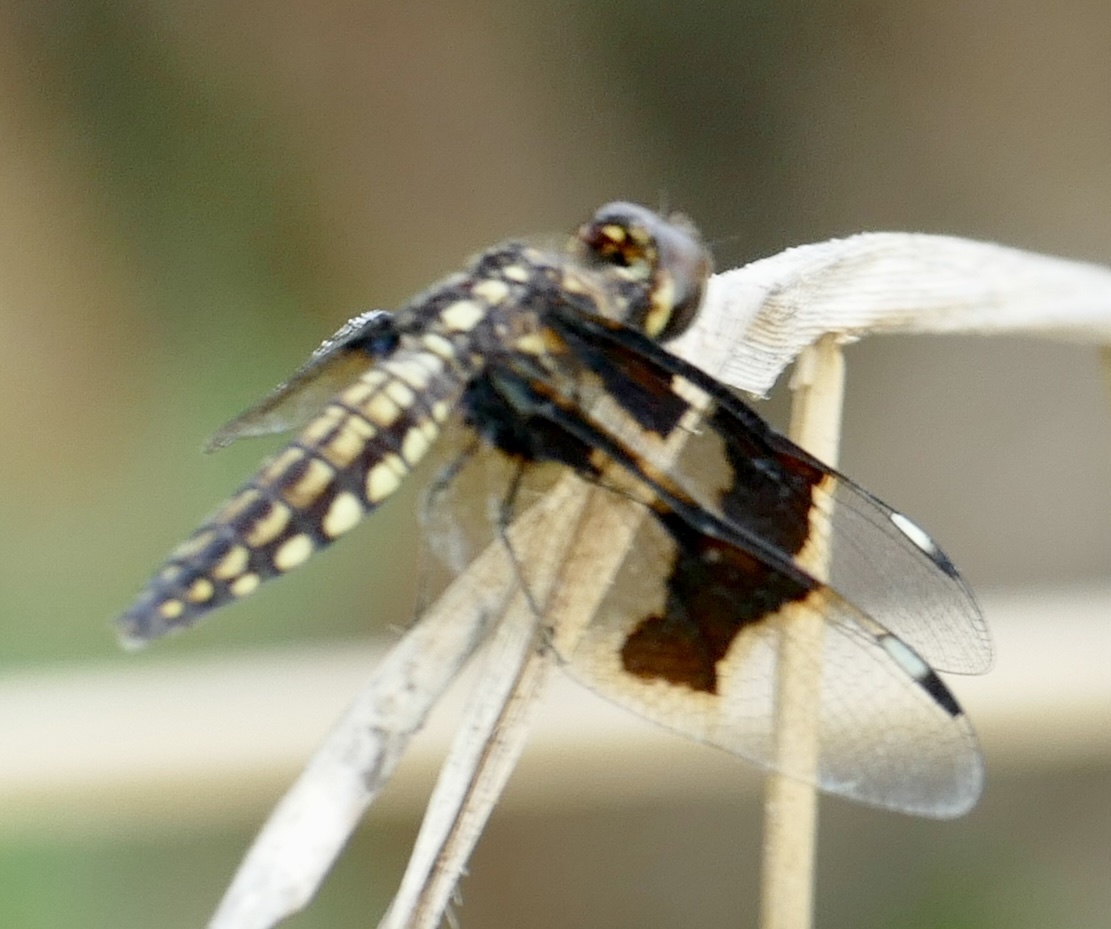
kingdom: Animalia
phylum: Arthropoda
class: Insecta
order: Odonata
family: Libellulidae
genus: Palpopleura
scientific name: Palpopleura lucia
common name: Lucia widow
